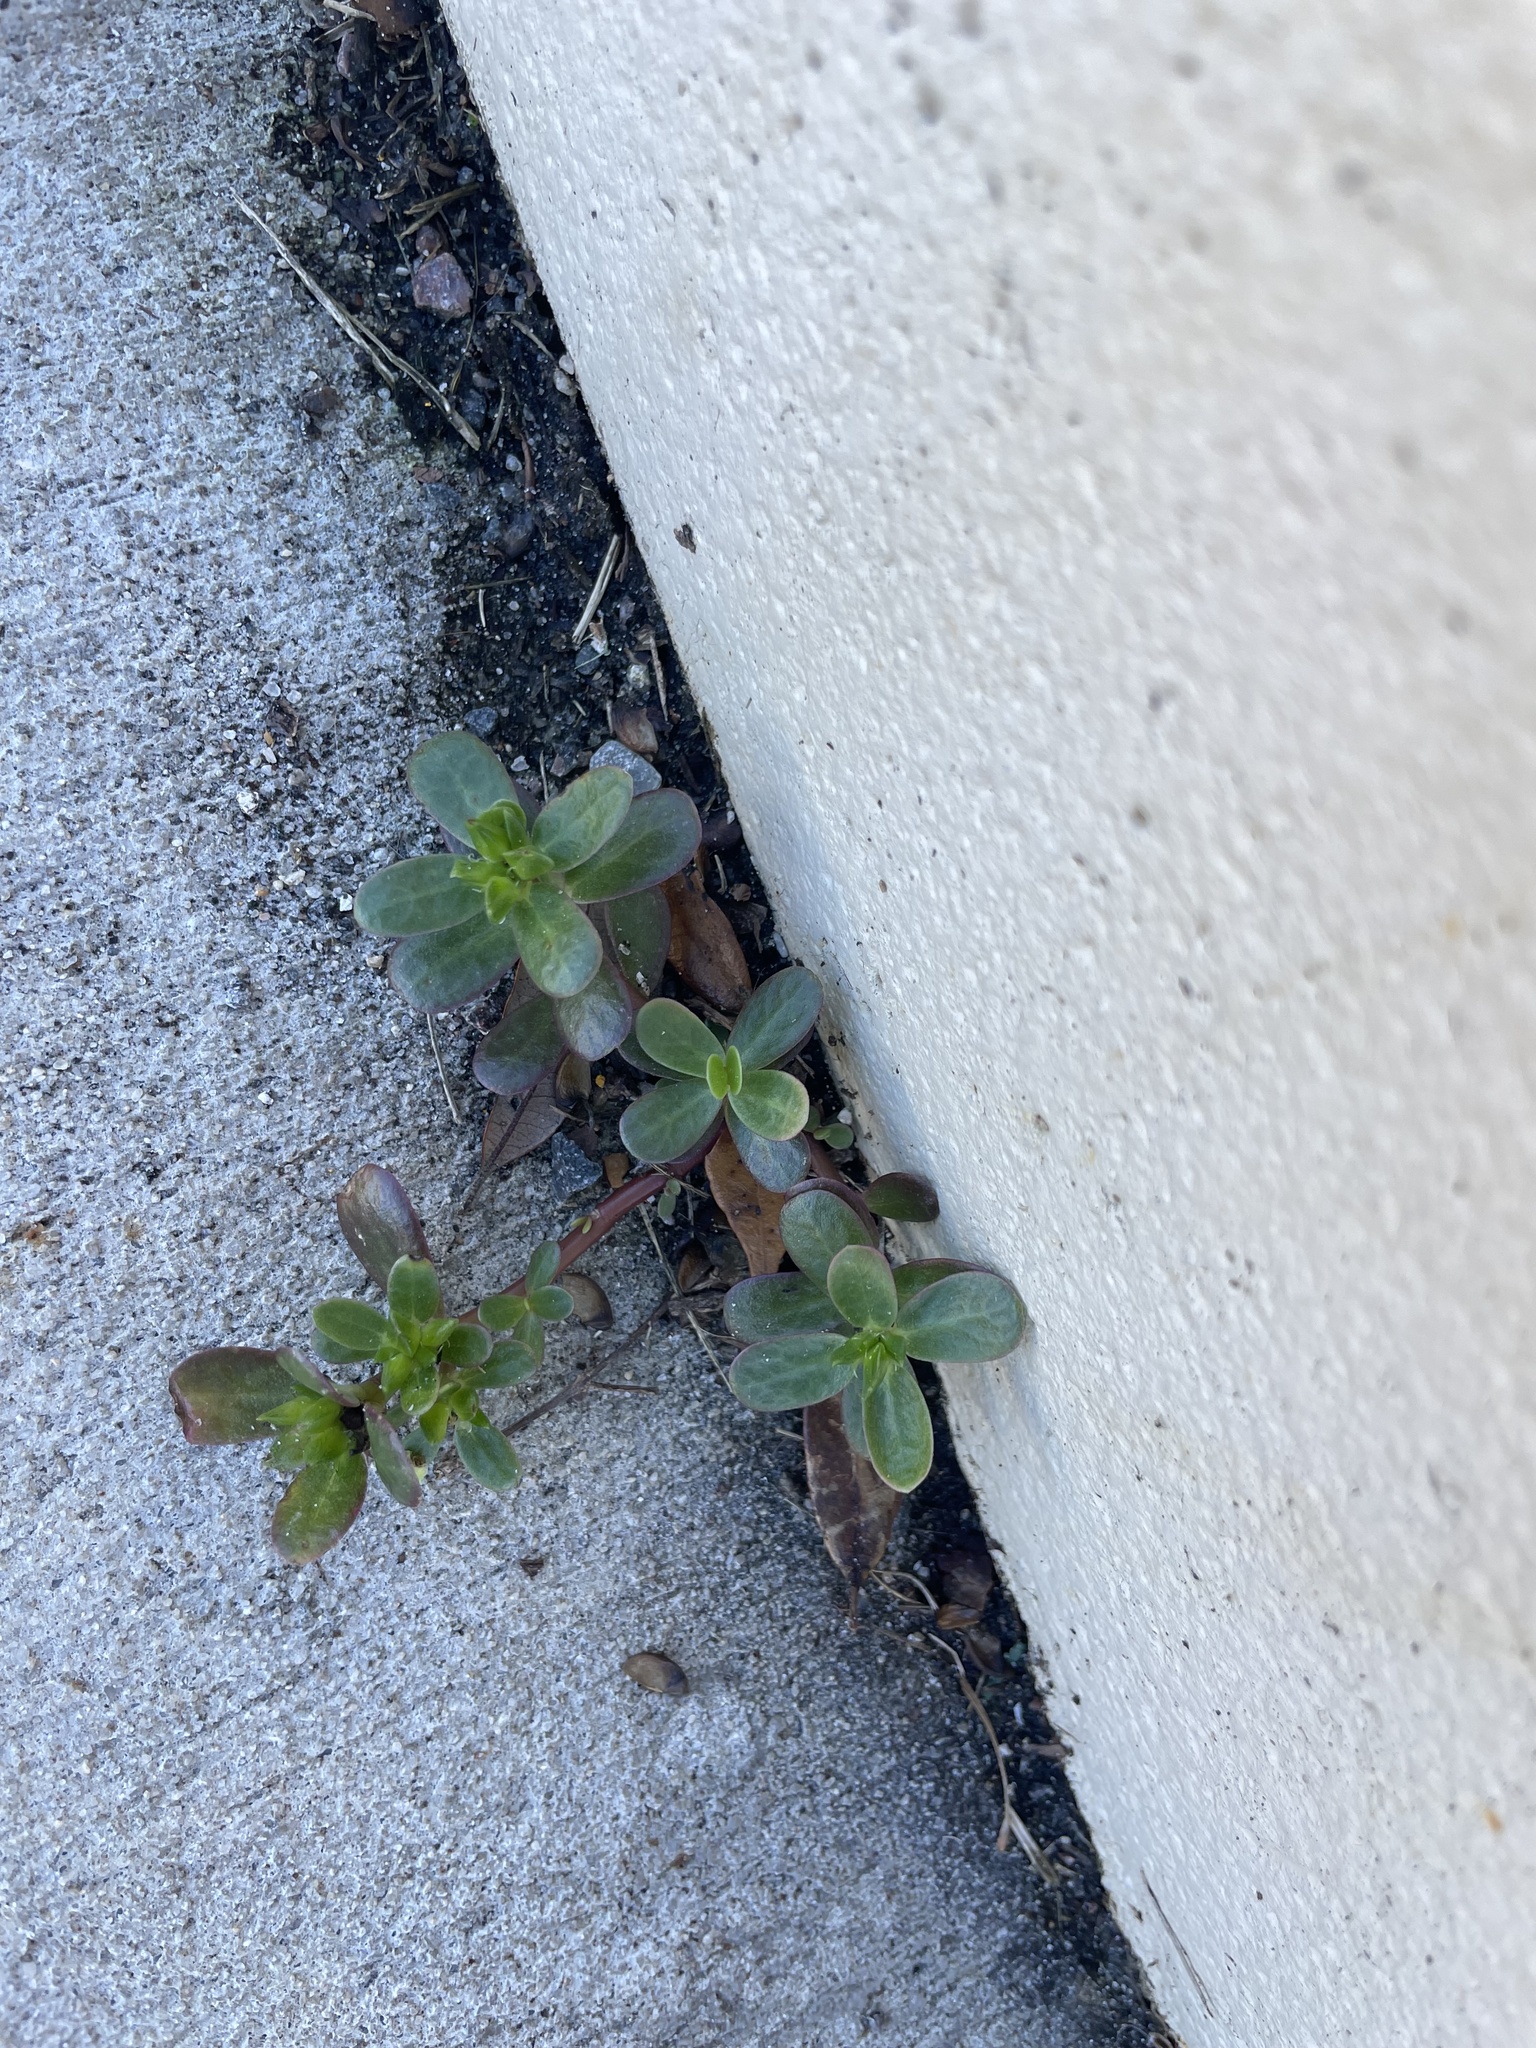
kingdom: Plantae
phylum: Tracheophyta
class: Magnoliopsida
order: Caryophyllales
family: Portulacaceae
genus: Portulaca
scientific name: Portulaca oleracea
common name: Common purslane
